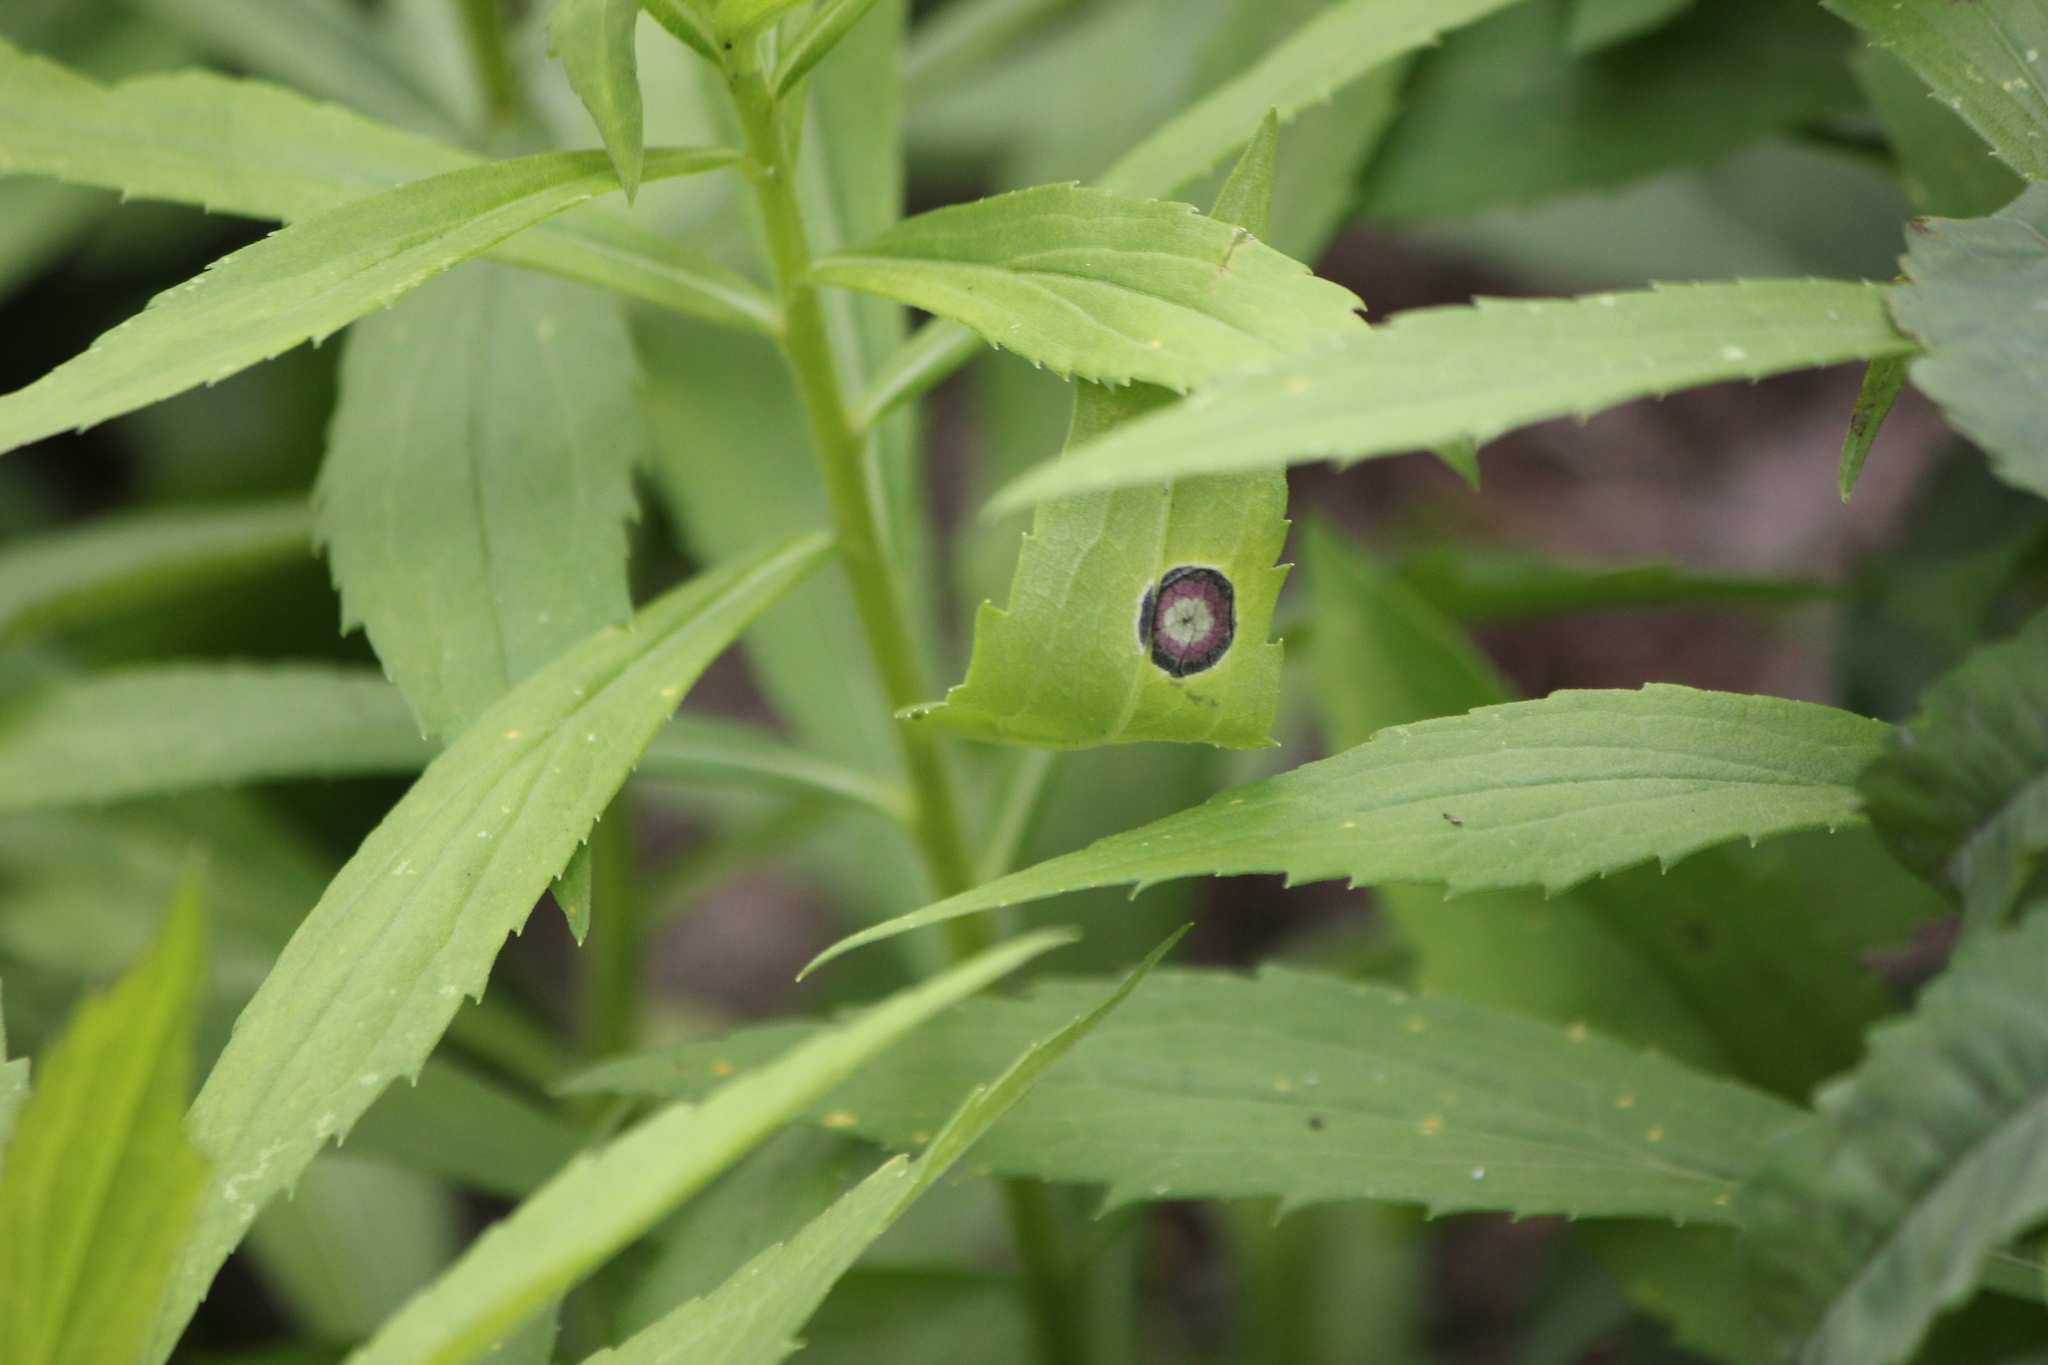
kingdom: Fungi
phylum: Ascomycota
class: Dothideomycetes
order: Botryosphaeriales
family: Botryosphaeriaceae
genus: Botryosphaeria
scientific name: Botryosphaeria dothidea
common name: Asteromyia gall midge fungus
